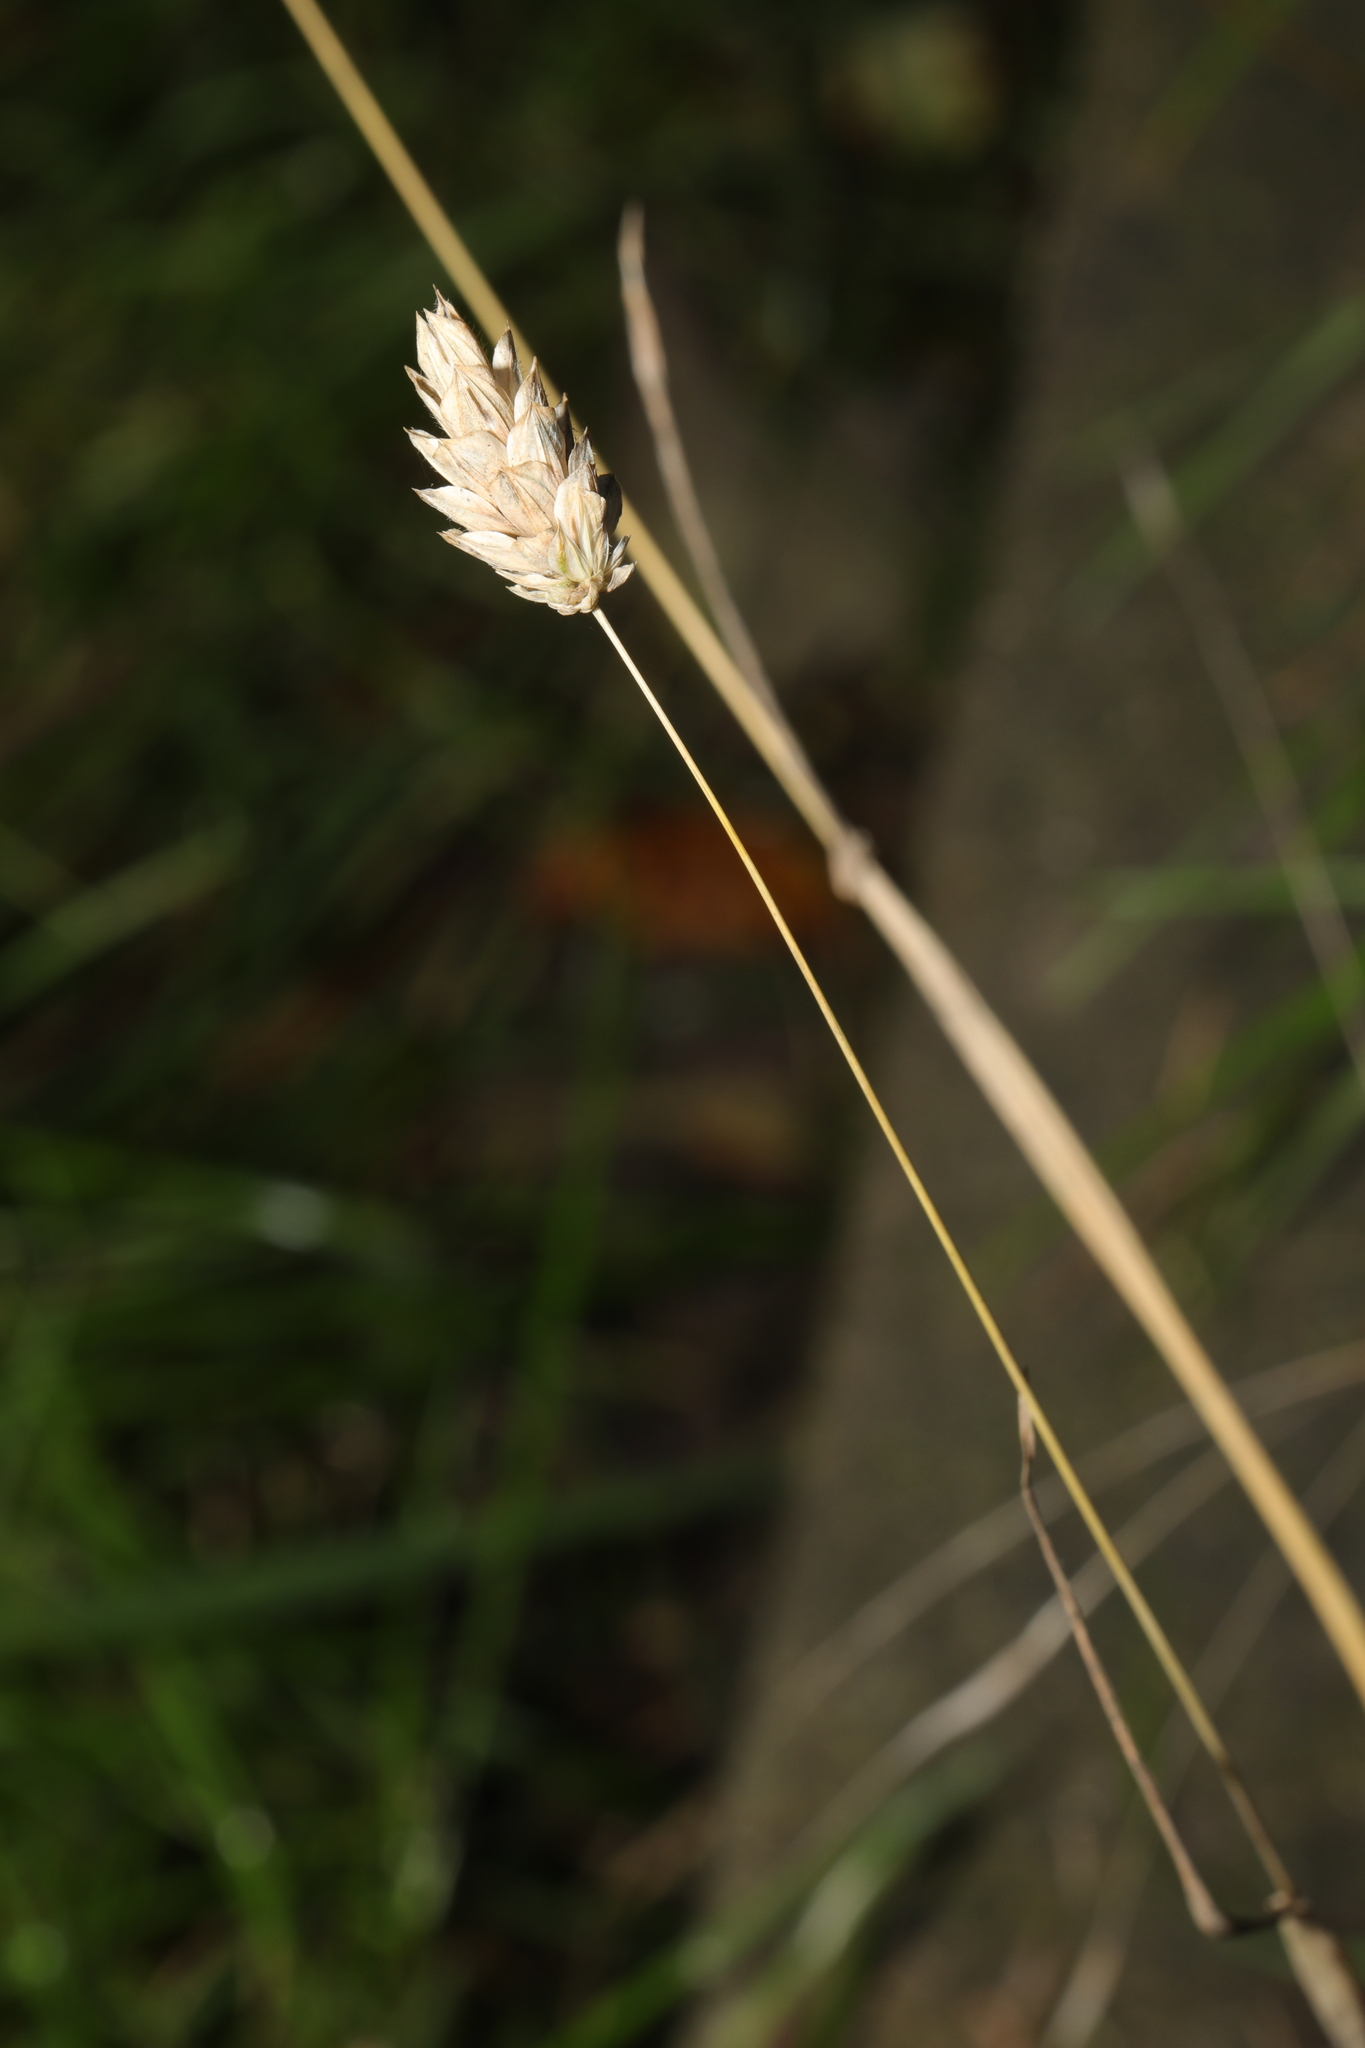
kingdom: Plantae
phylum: Tracheophyta
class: Liliopsida
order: Poales
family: Poaceae
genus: Phalaris
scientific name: Phalaris canariensis
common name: Annual canarygrass
